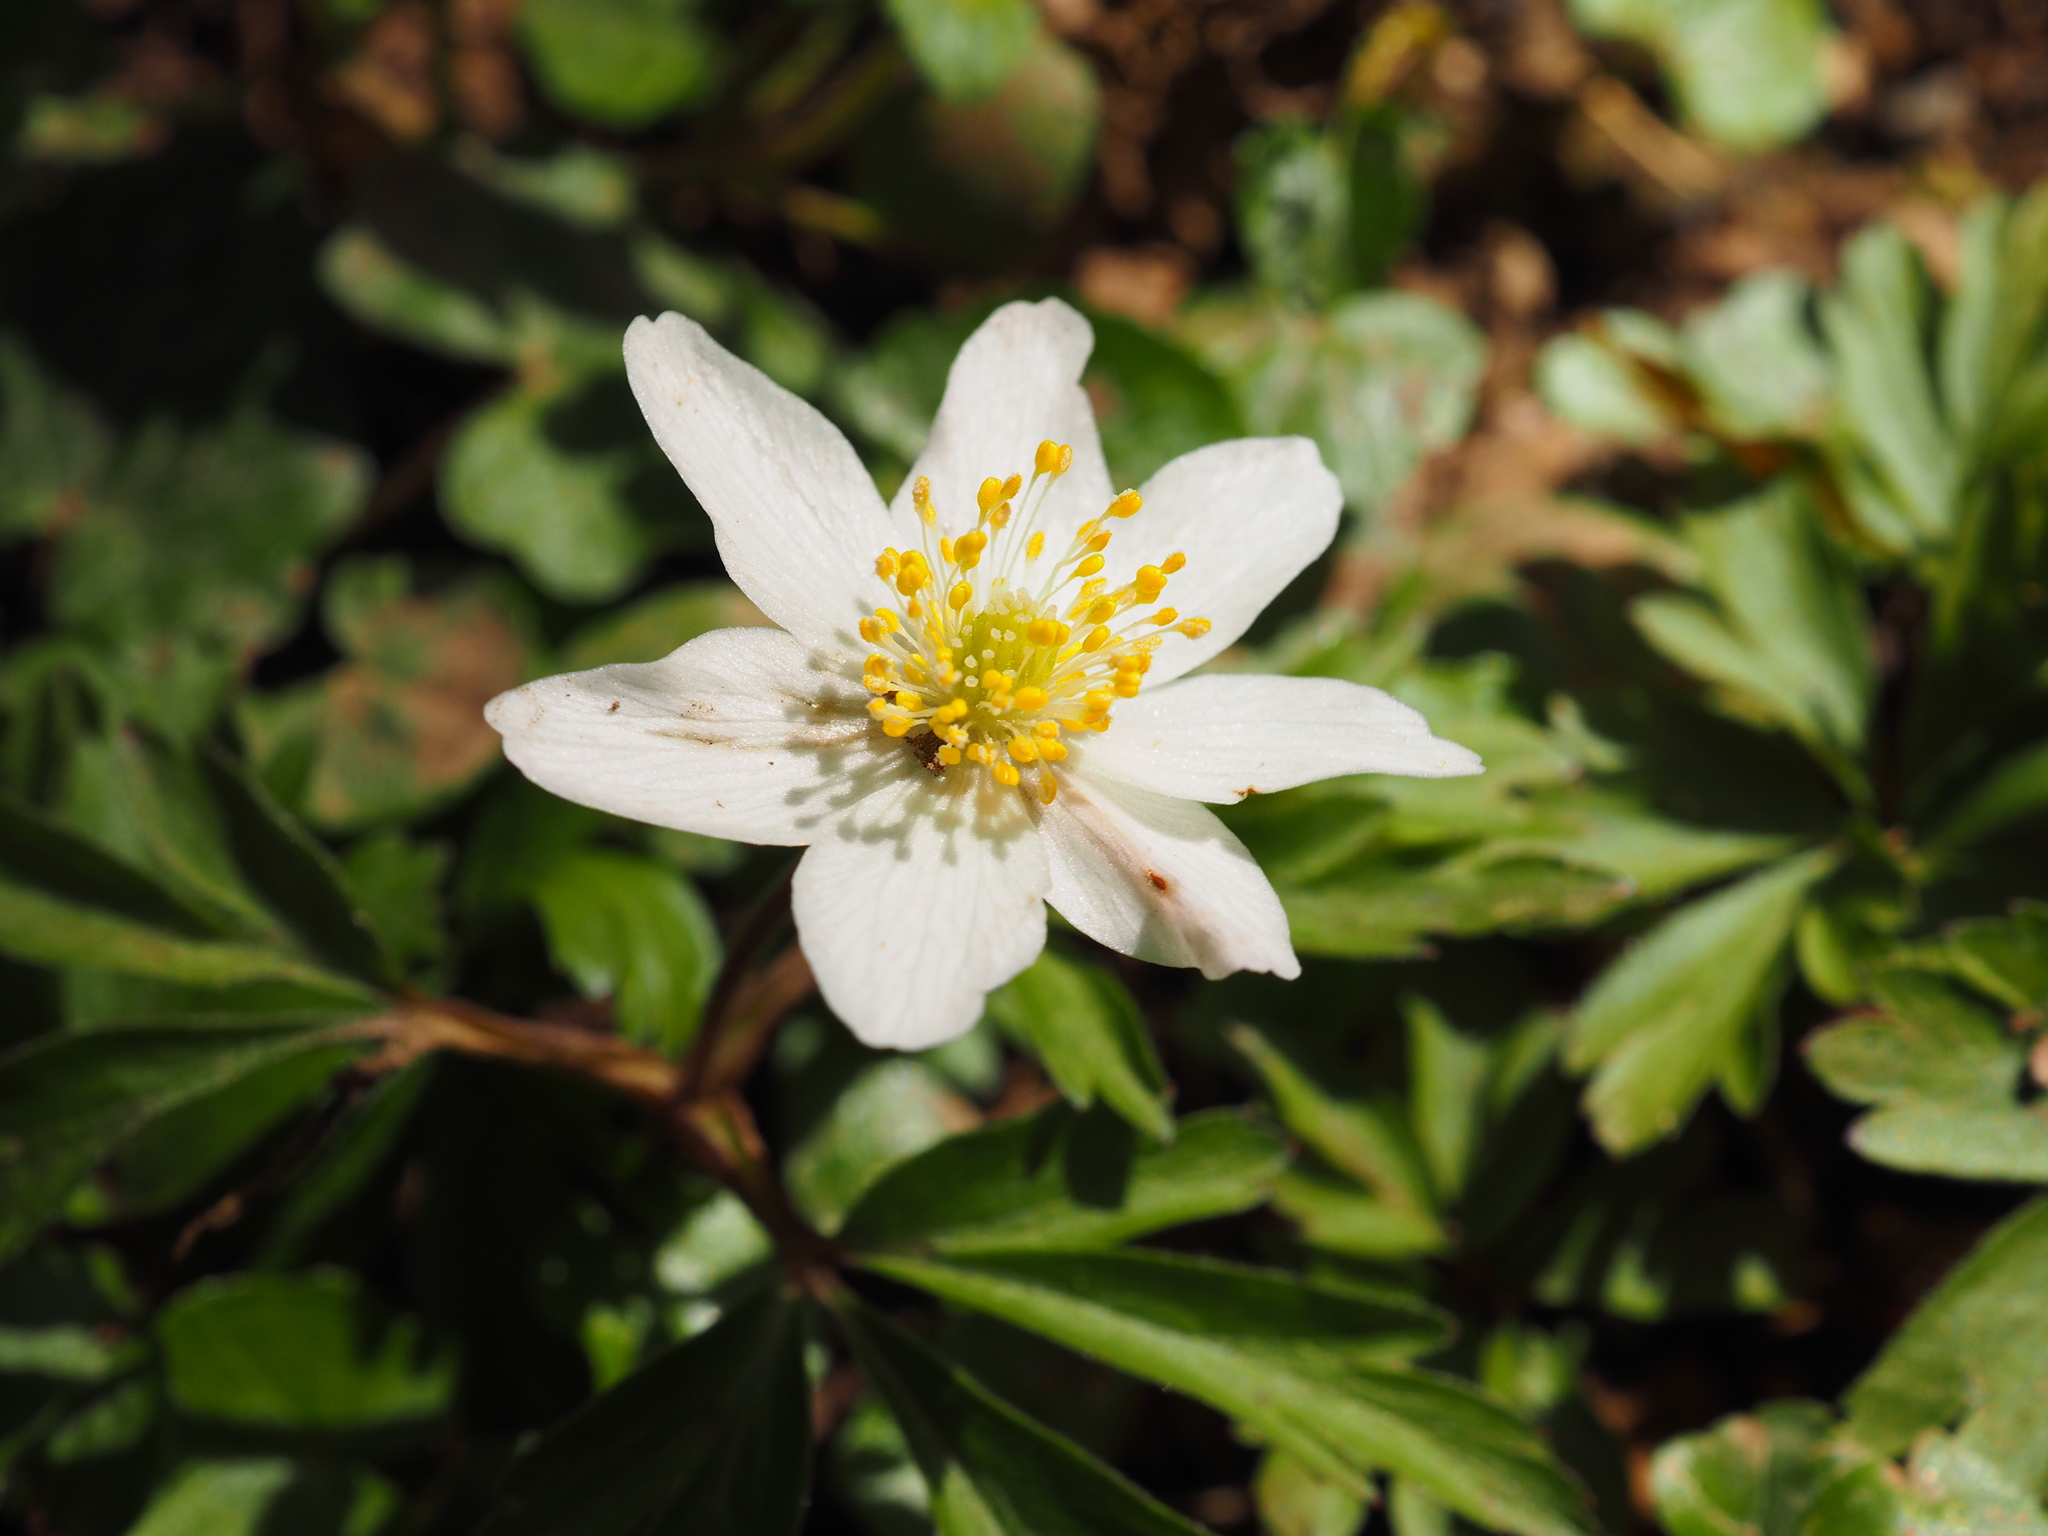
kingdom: Plantae
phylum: Tracheophyta
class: Magnoliopsida
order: Ranunculales
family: Ranunculaceae
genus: Anemone
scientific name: Anemone nemorosa
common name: Wood anemone
